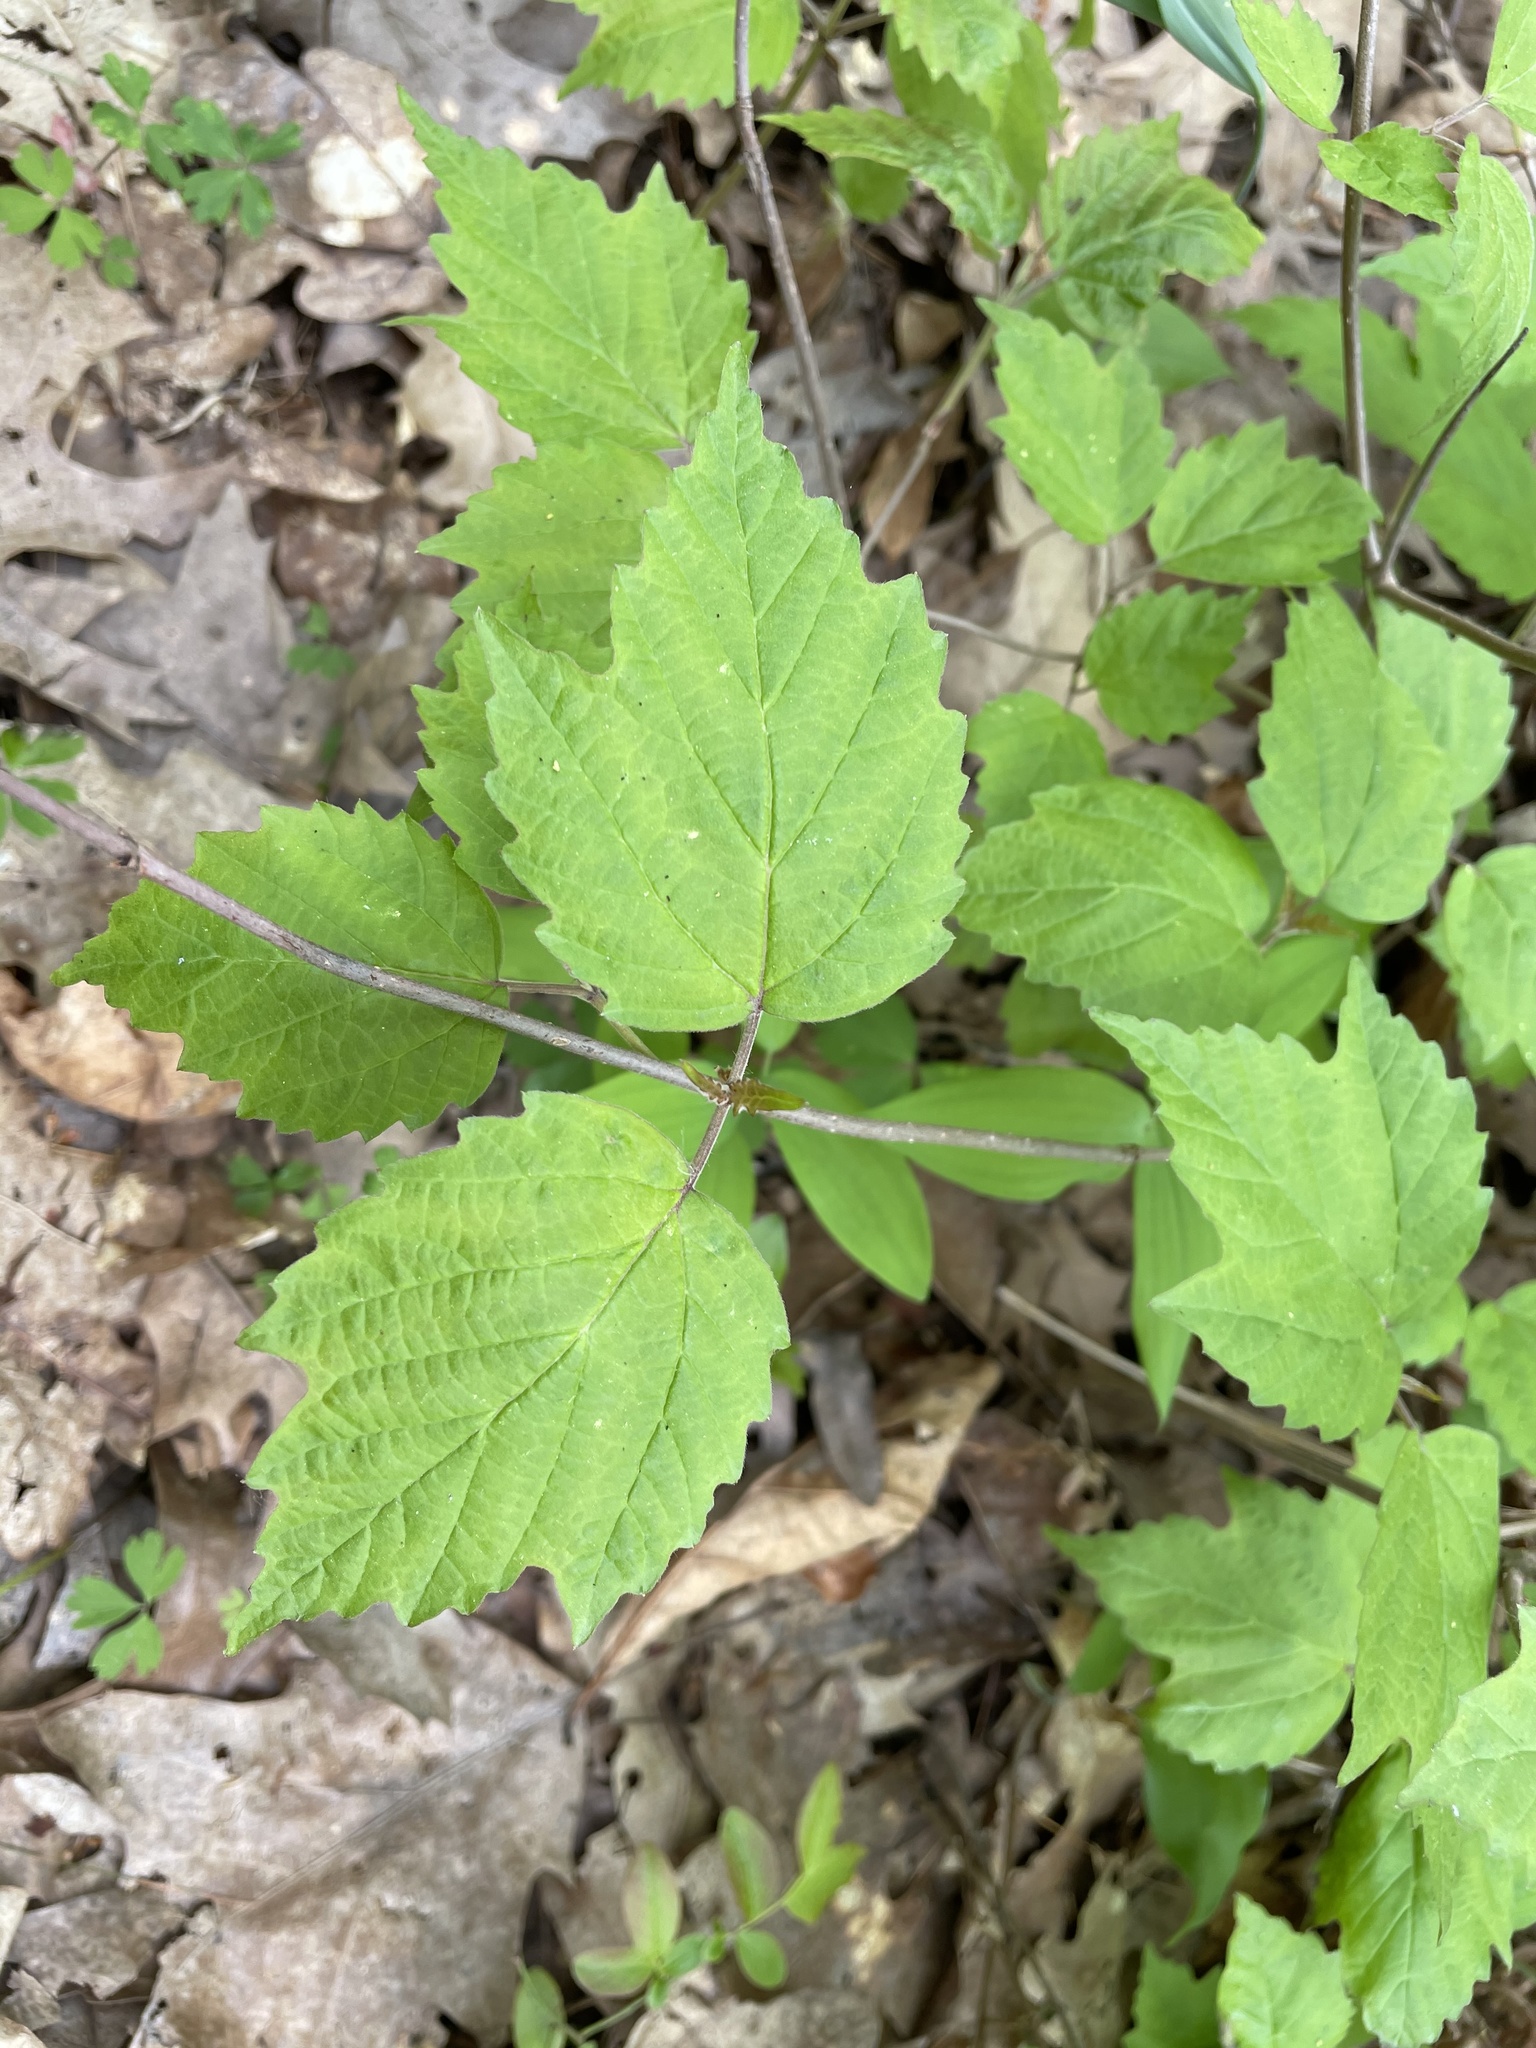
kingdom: Plantae
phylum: Tracheophyta
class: Magnoliopsida
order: Dipsacales
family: Viburnaceae
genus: Viburnum
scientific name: Viburnum acerifolium
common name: Dockmackie
